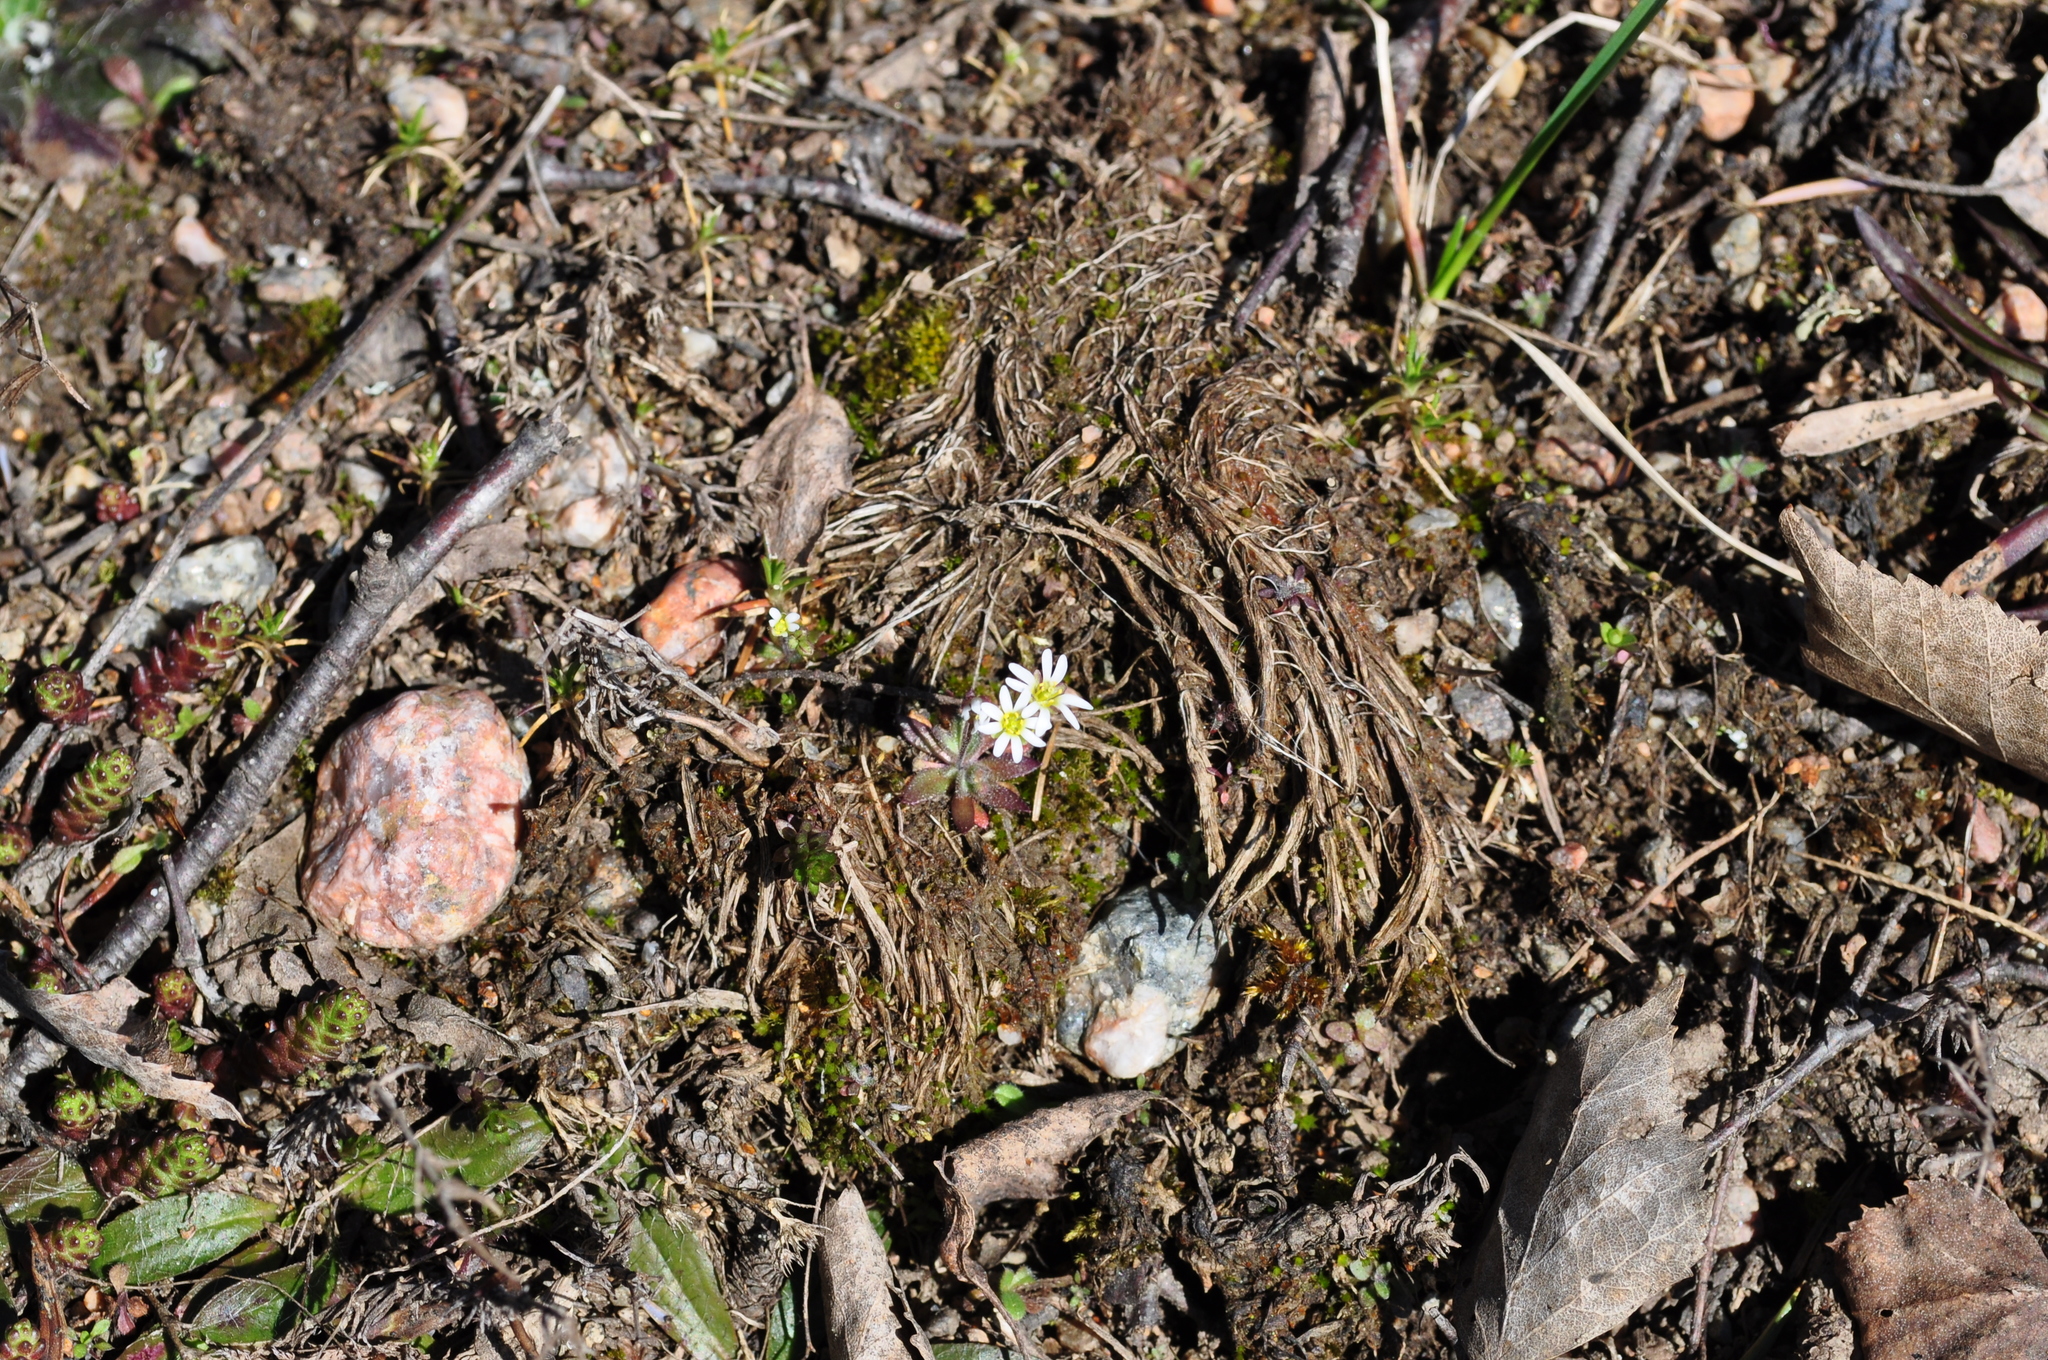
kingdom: Plantae
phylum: Tracheophyta
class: Magnoliopsida
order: Brassicales
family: Brassicaceae
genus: Draba
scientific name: Draba verna
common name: Spring draba
